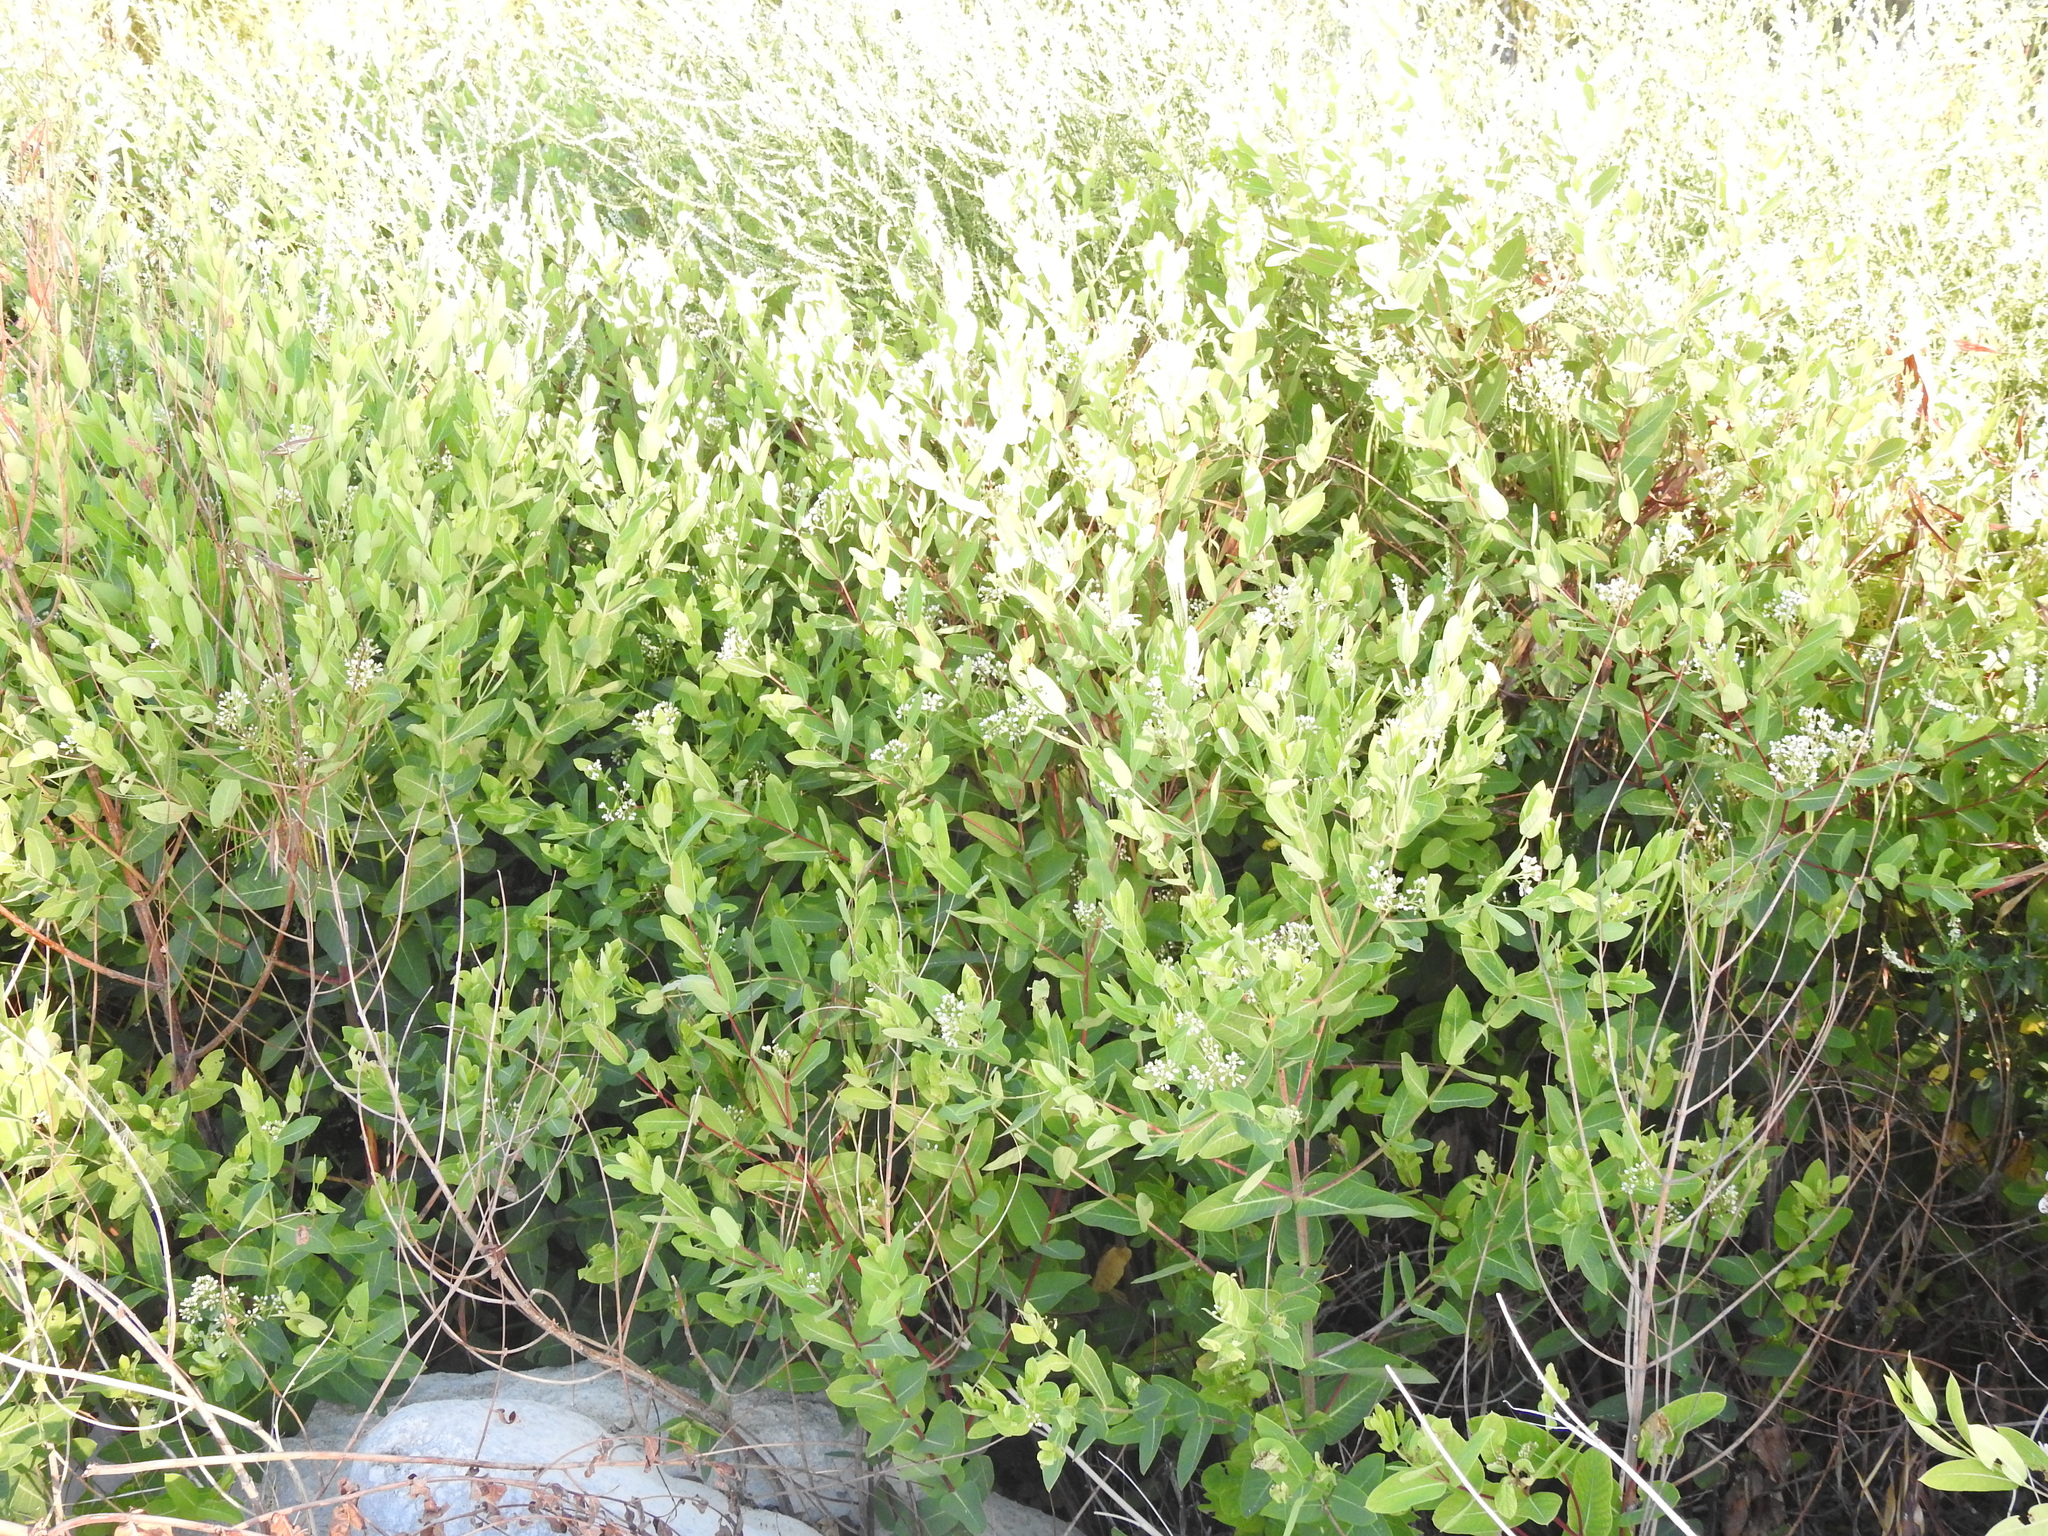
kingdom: Plantae
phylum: Tracheophyta
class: Magnoliopsida
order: Gentianales
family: Apocynaceae
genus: Apocynum
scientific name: Apocynum cannabinum
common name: Hemp dogbane
